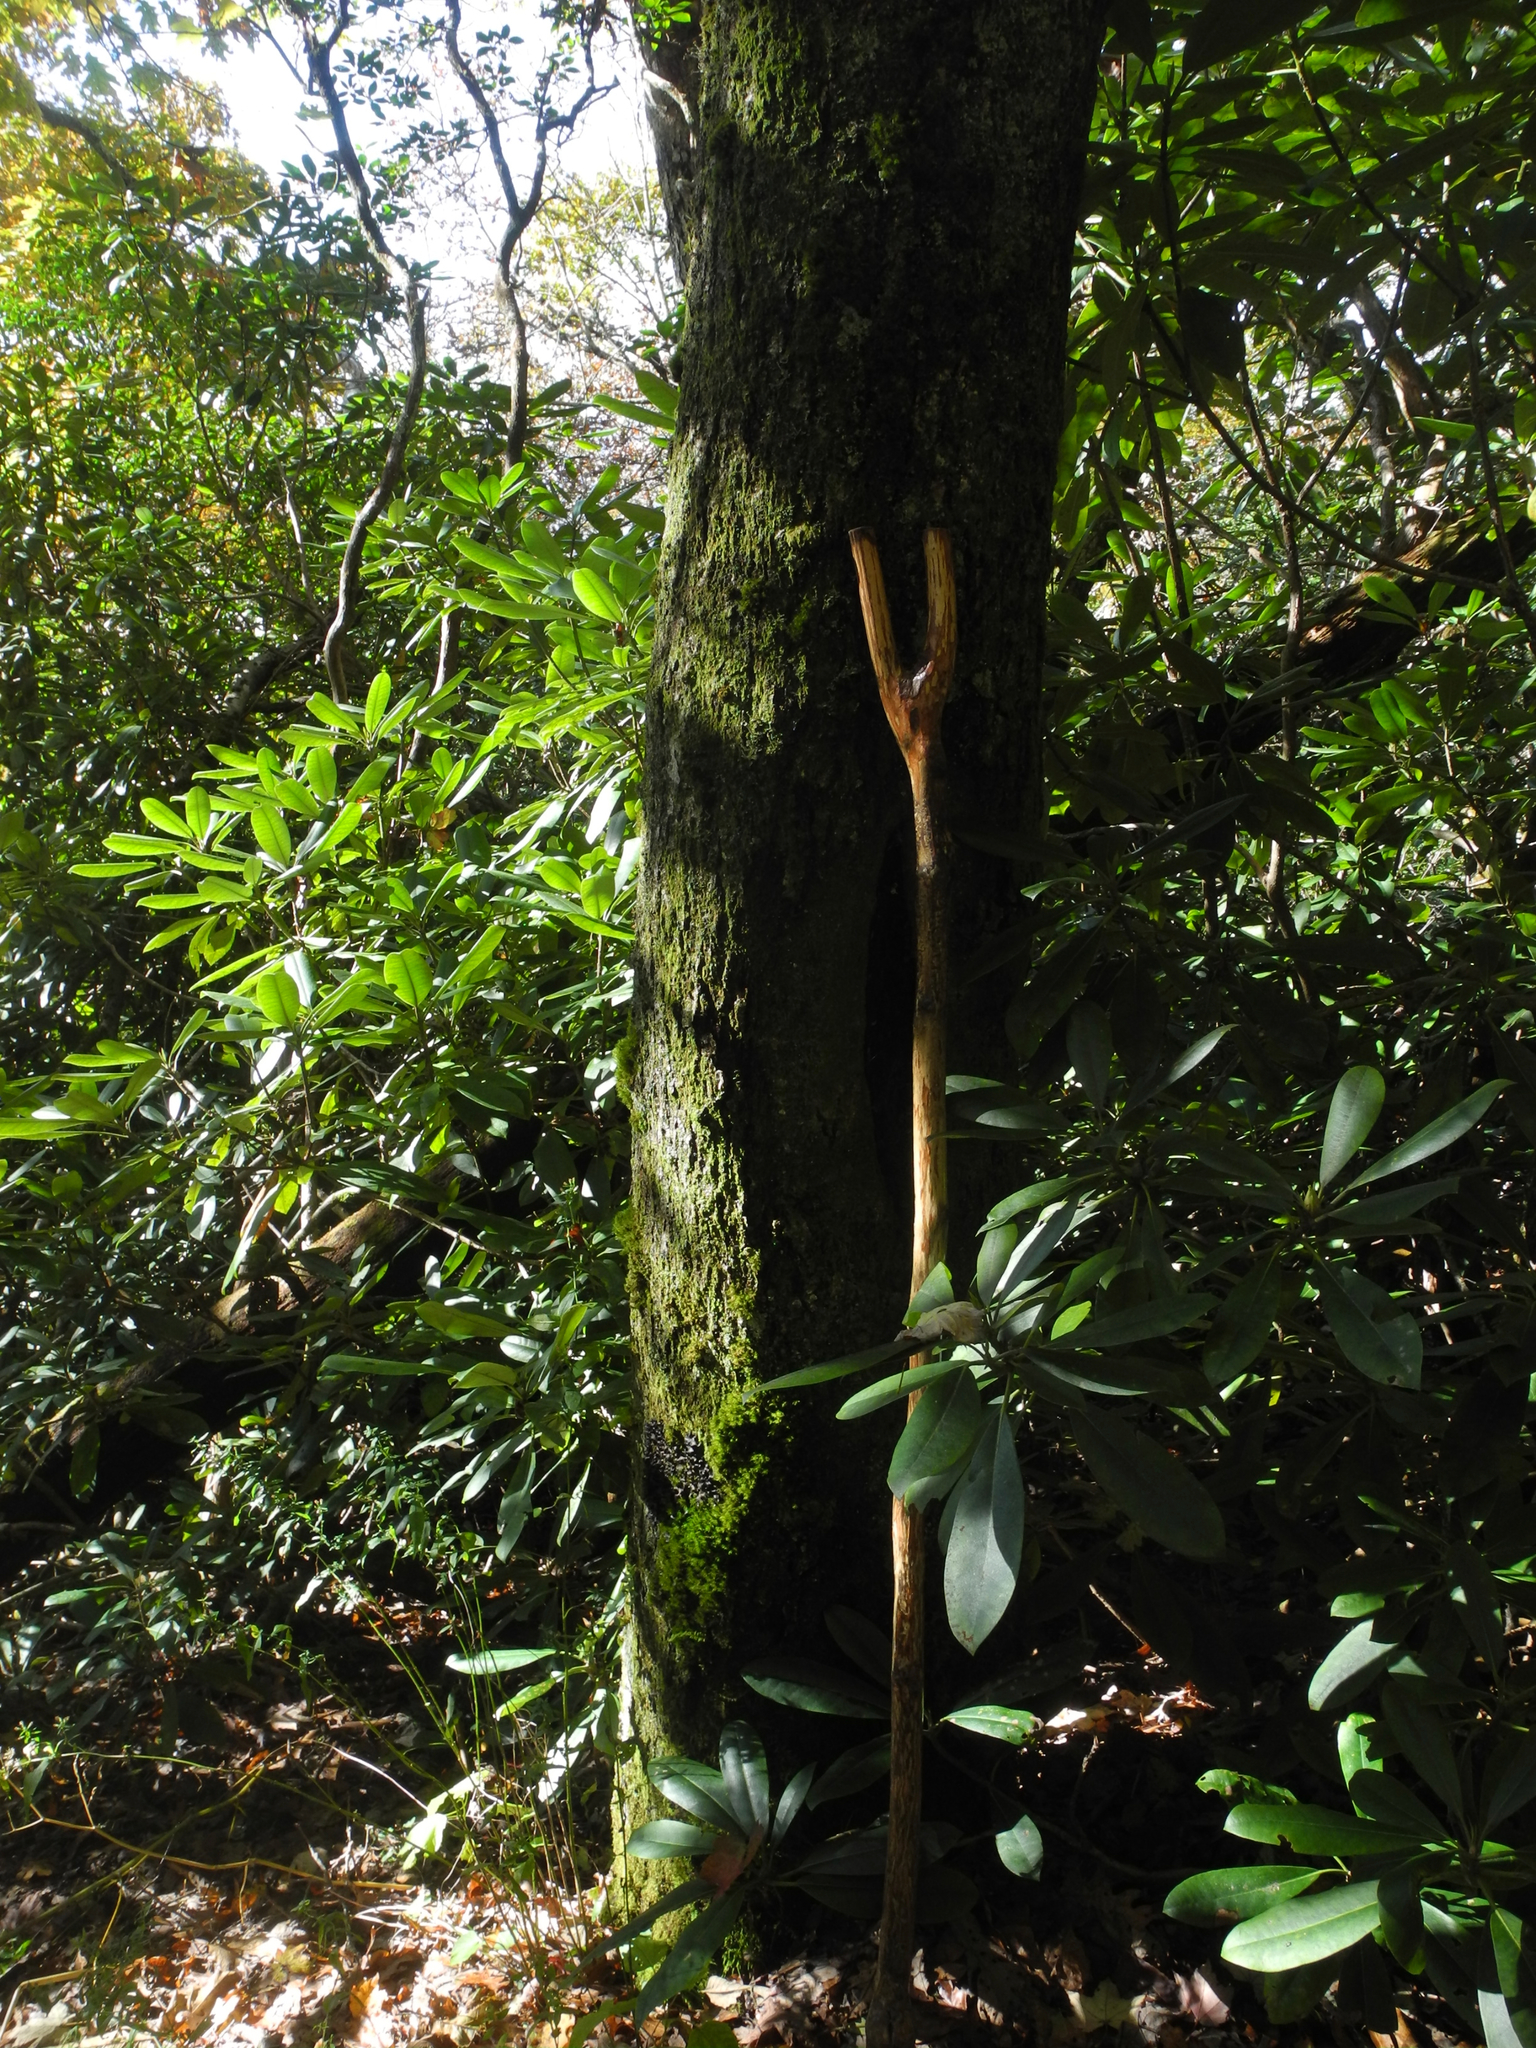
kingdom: Plantae
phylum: Tracheophyta
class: Magnoliopsida
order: Fagales
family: Fagaceae
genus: Quercus
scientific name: Quercus rubra
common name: Red oak
